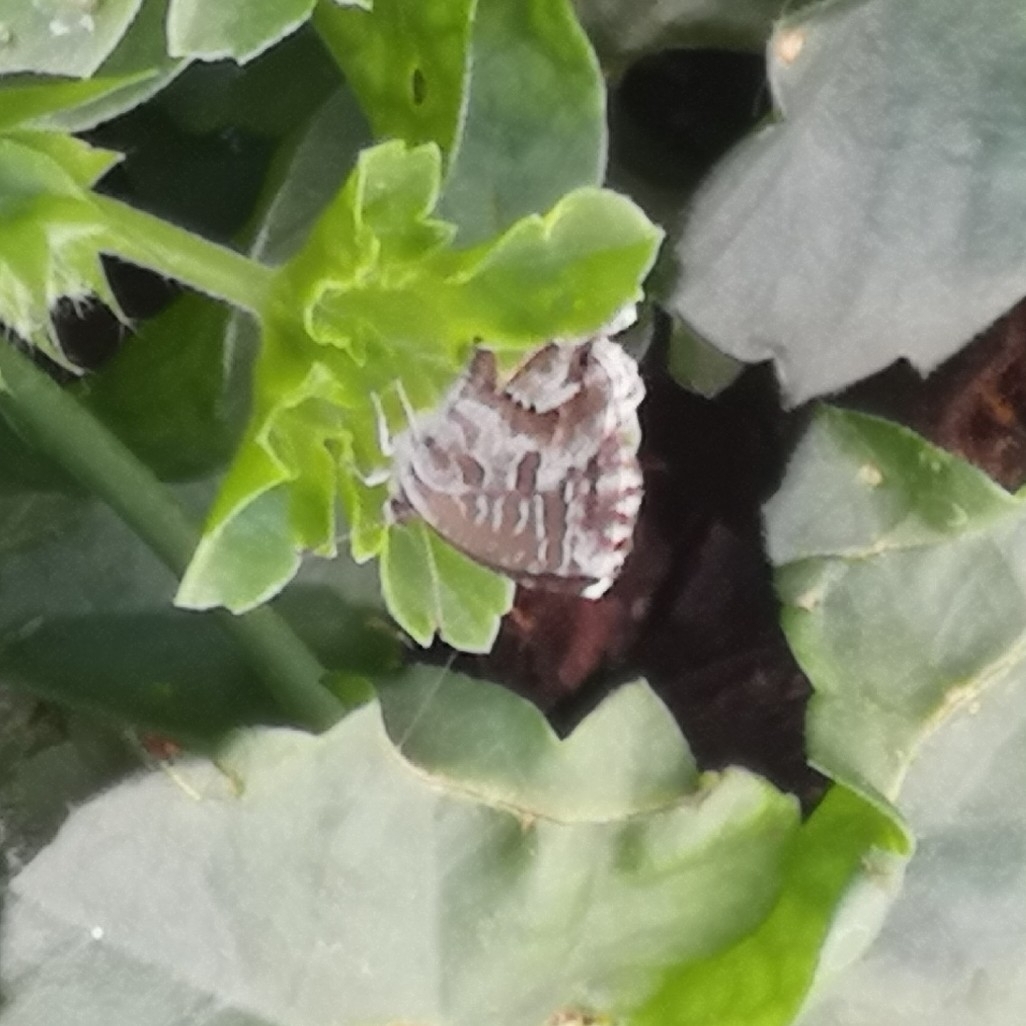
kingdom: Animalia
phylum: Arthropoda
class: Insecta
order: Lepidoptera
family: Lycaenidae
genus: Cacyreus
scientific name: Cacyreus marshalli
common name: Geranium bronze
